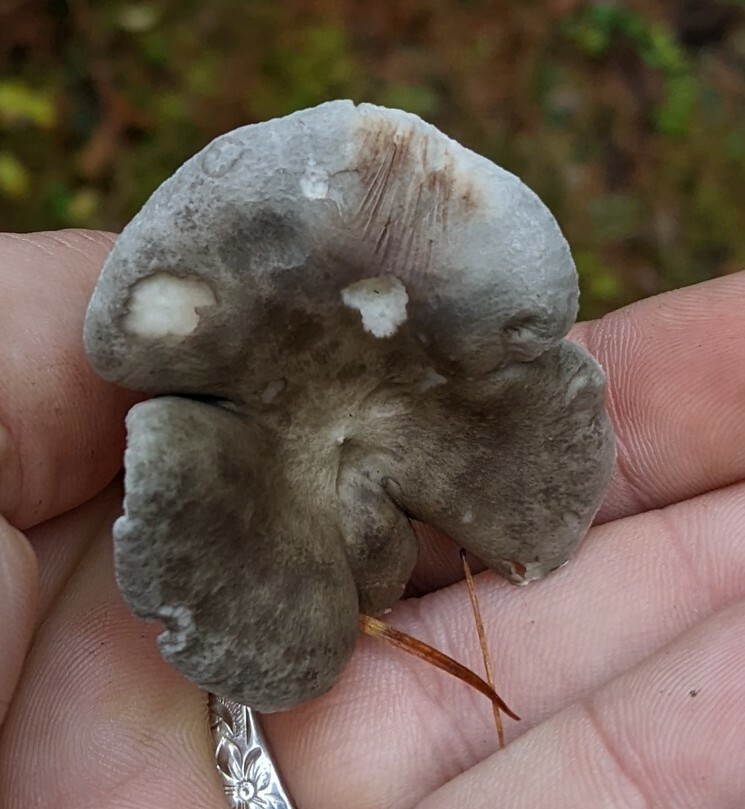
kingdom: Fungi
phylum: Basidiomycota
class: Agaricomycetes
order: Agaricales
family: Hygrophoraceae
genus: Cantharellula
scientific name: Cantharellula umbonata
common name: The humpback
